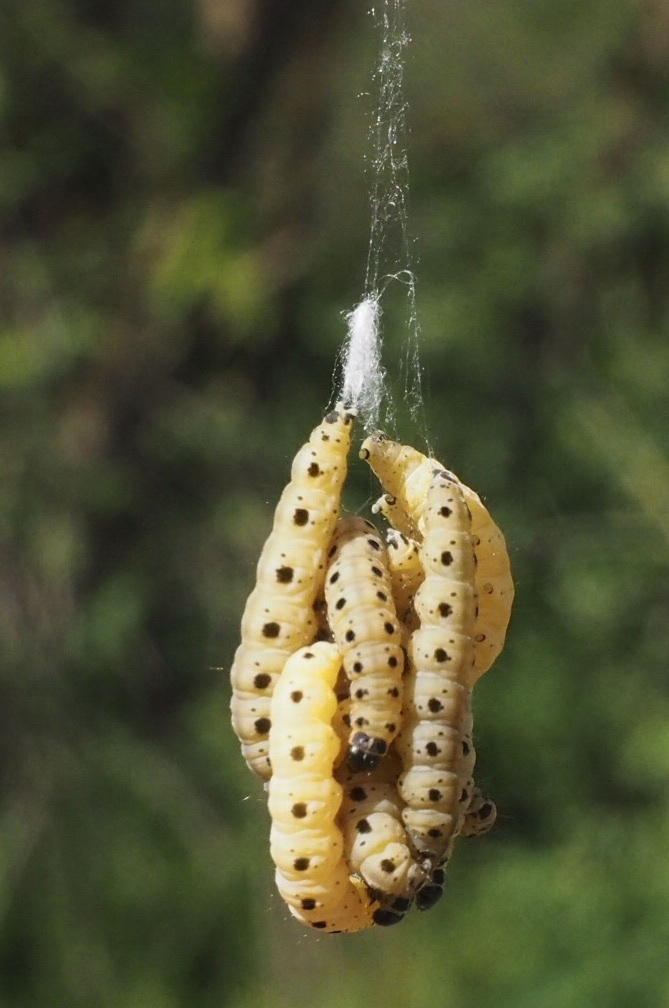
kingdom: Animalia
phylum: Arthropoda
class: Insecta
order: Lepidoptera
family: Yponomeutidae
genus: Yponomeuta
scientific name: Yponomeuta cagnagellus
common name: Spindle ermine
